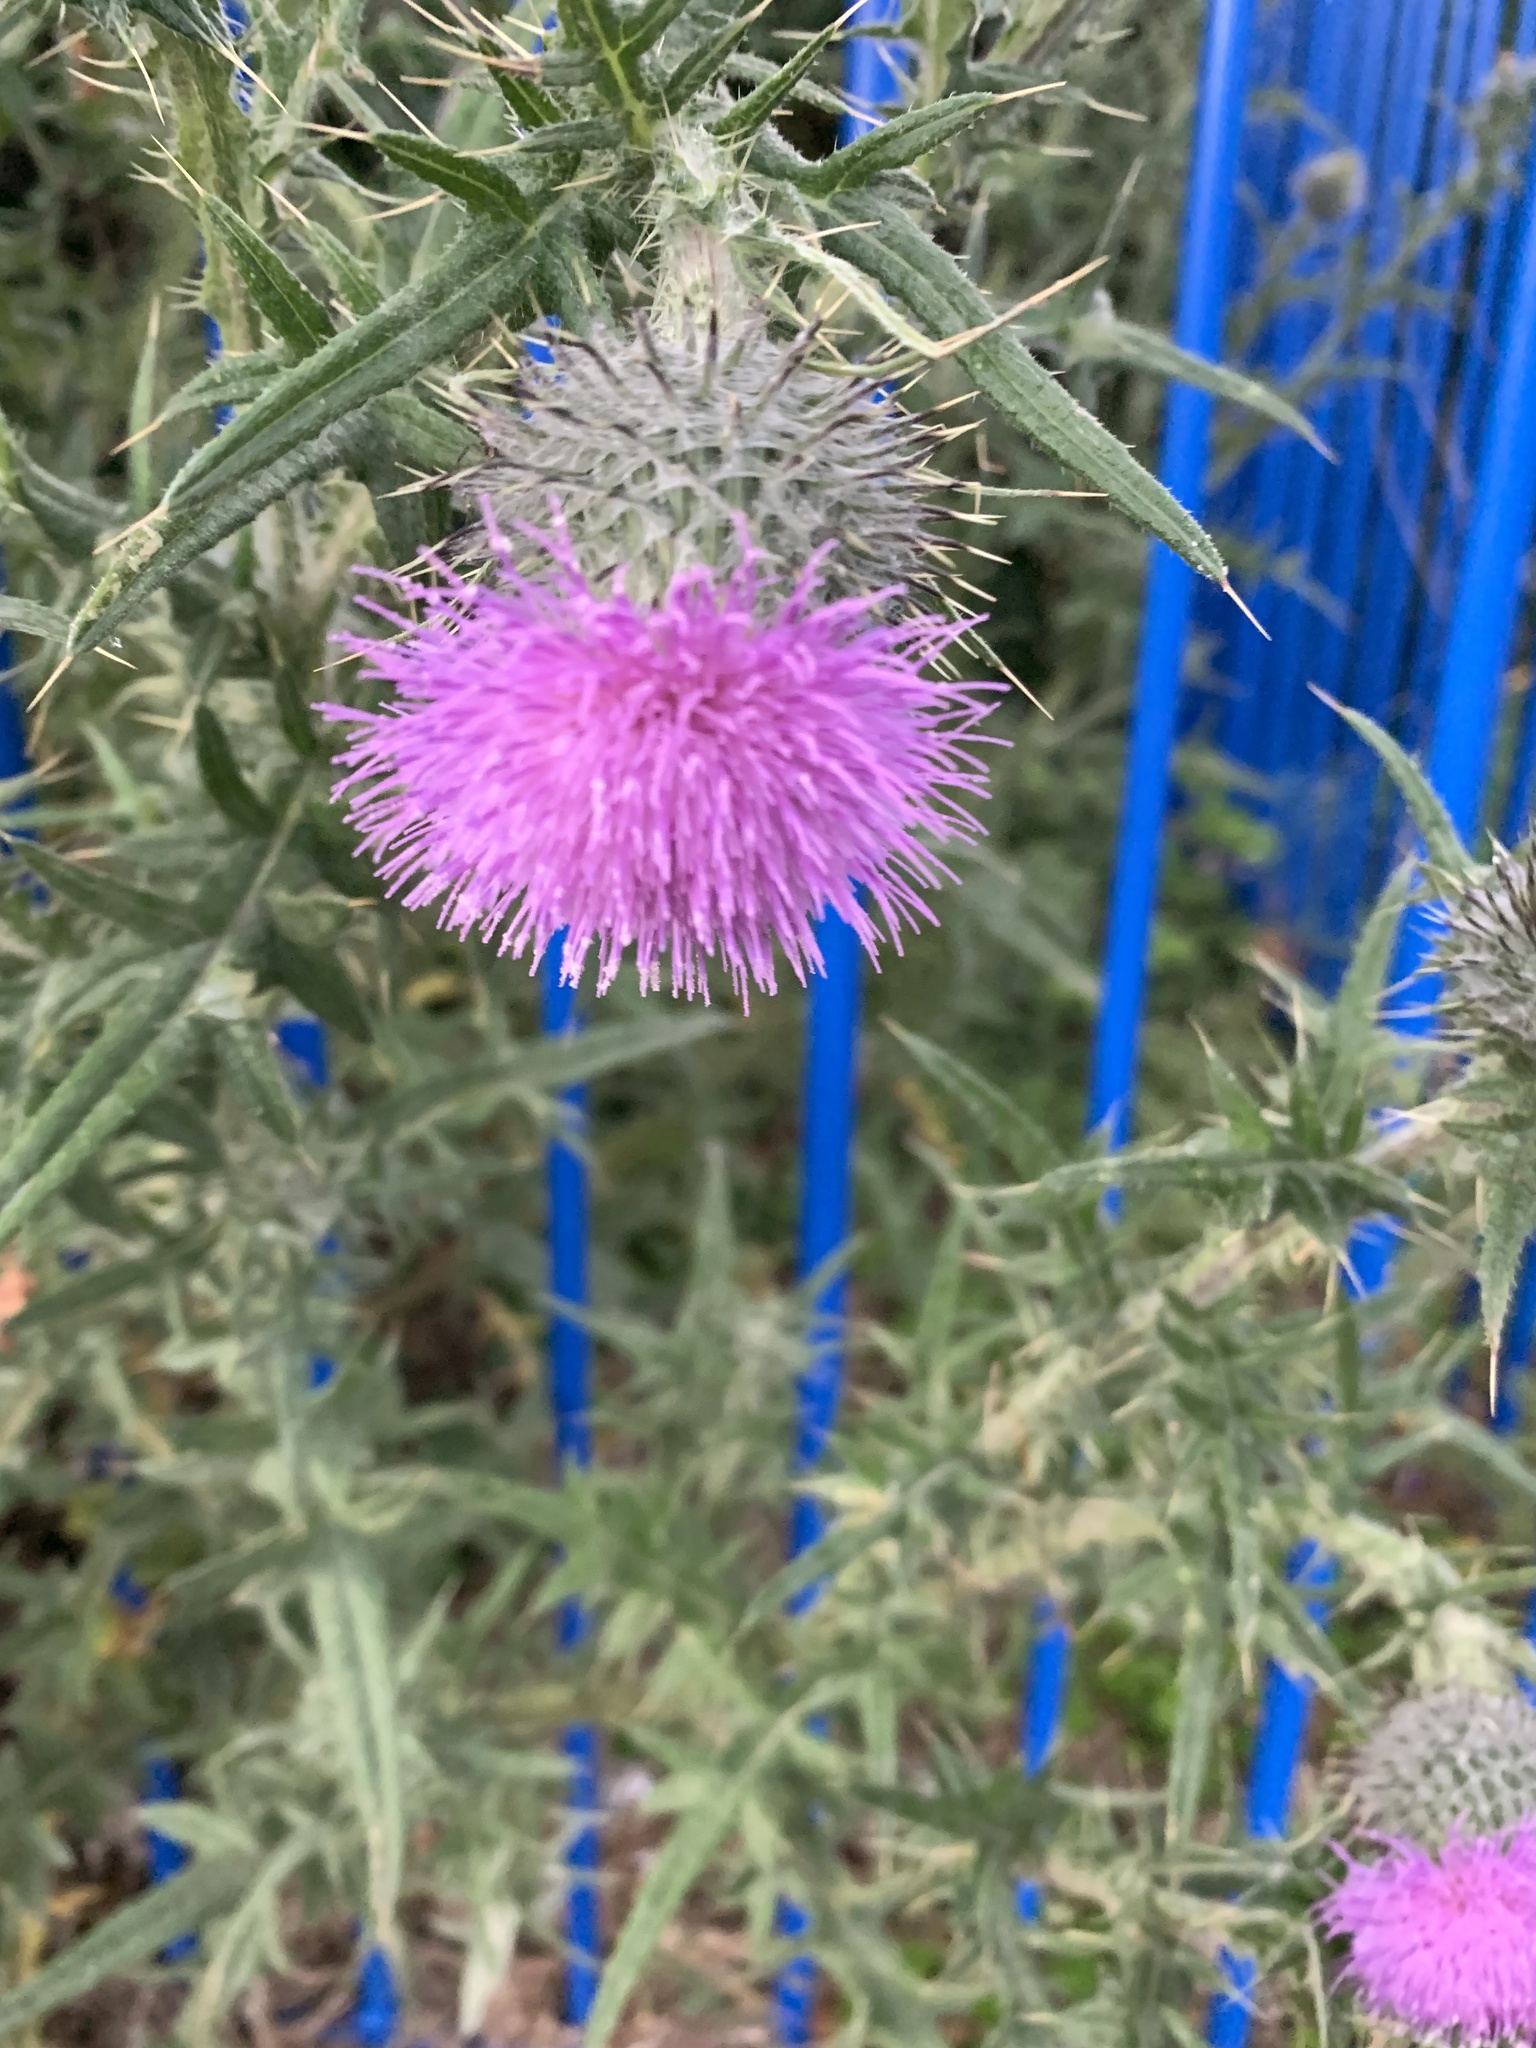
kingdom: Plantae
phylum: Tracheophyta
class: Magnoliopsida
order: Asterales
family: Asteraceae
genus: Cirsium
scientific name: Cirsium vulgare
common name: Bull thistle
